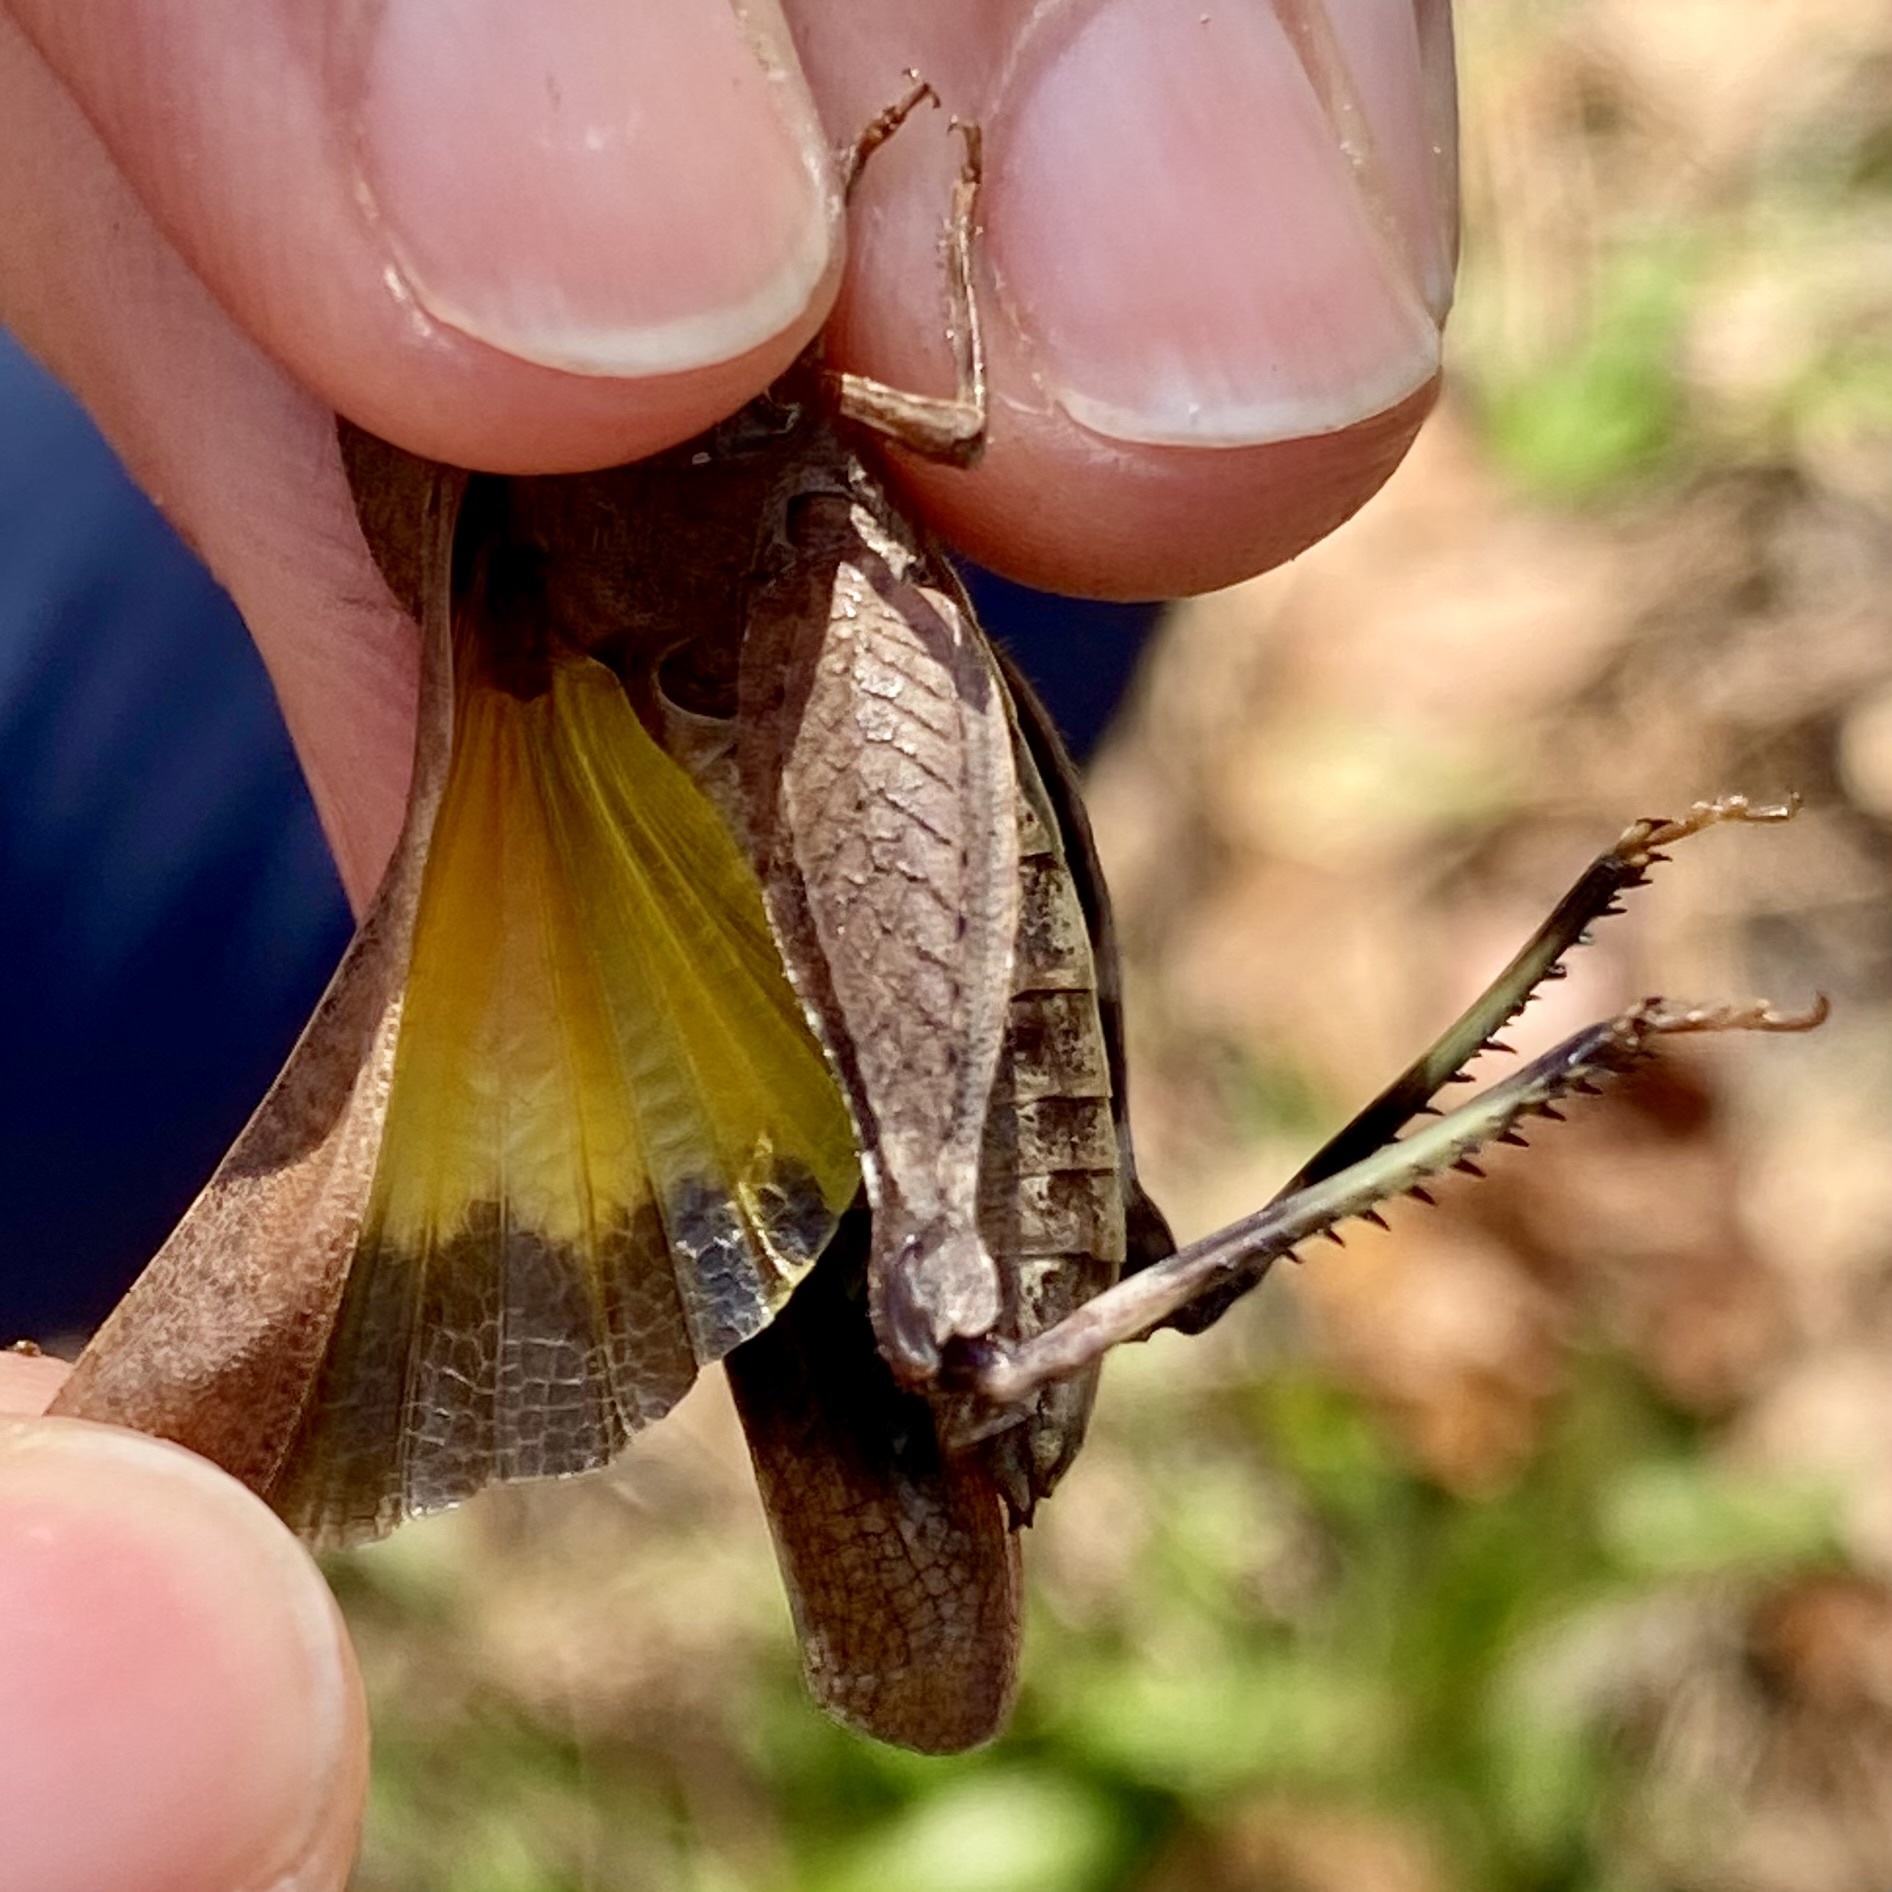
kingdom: Animalia
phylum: Arthropoda
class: Insecta
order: Orthoptera
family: Acrididae
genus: Arphia
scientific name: Arphia granulata
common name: Southern yellow-winged grasshopper
